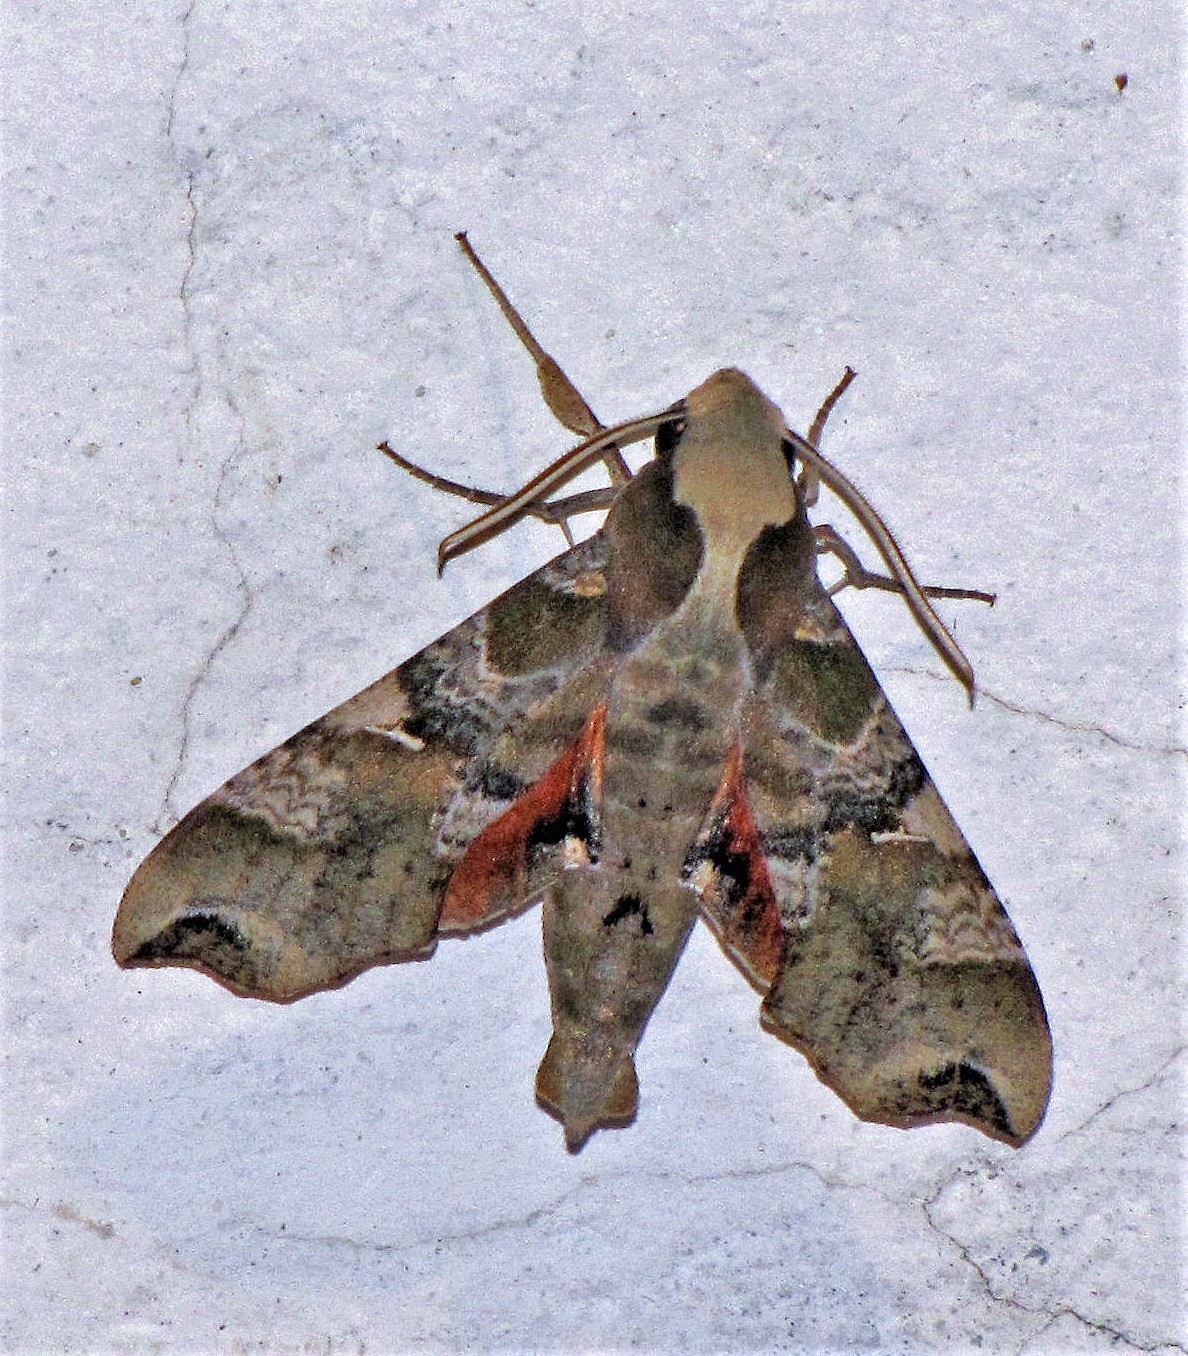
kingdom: Animalia
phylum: Arthropoda
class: Insecta
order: Lepidoptera
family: Sphingidae
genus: Callionima
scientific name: Callionima grisescens
